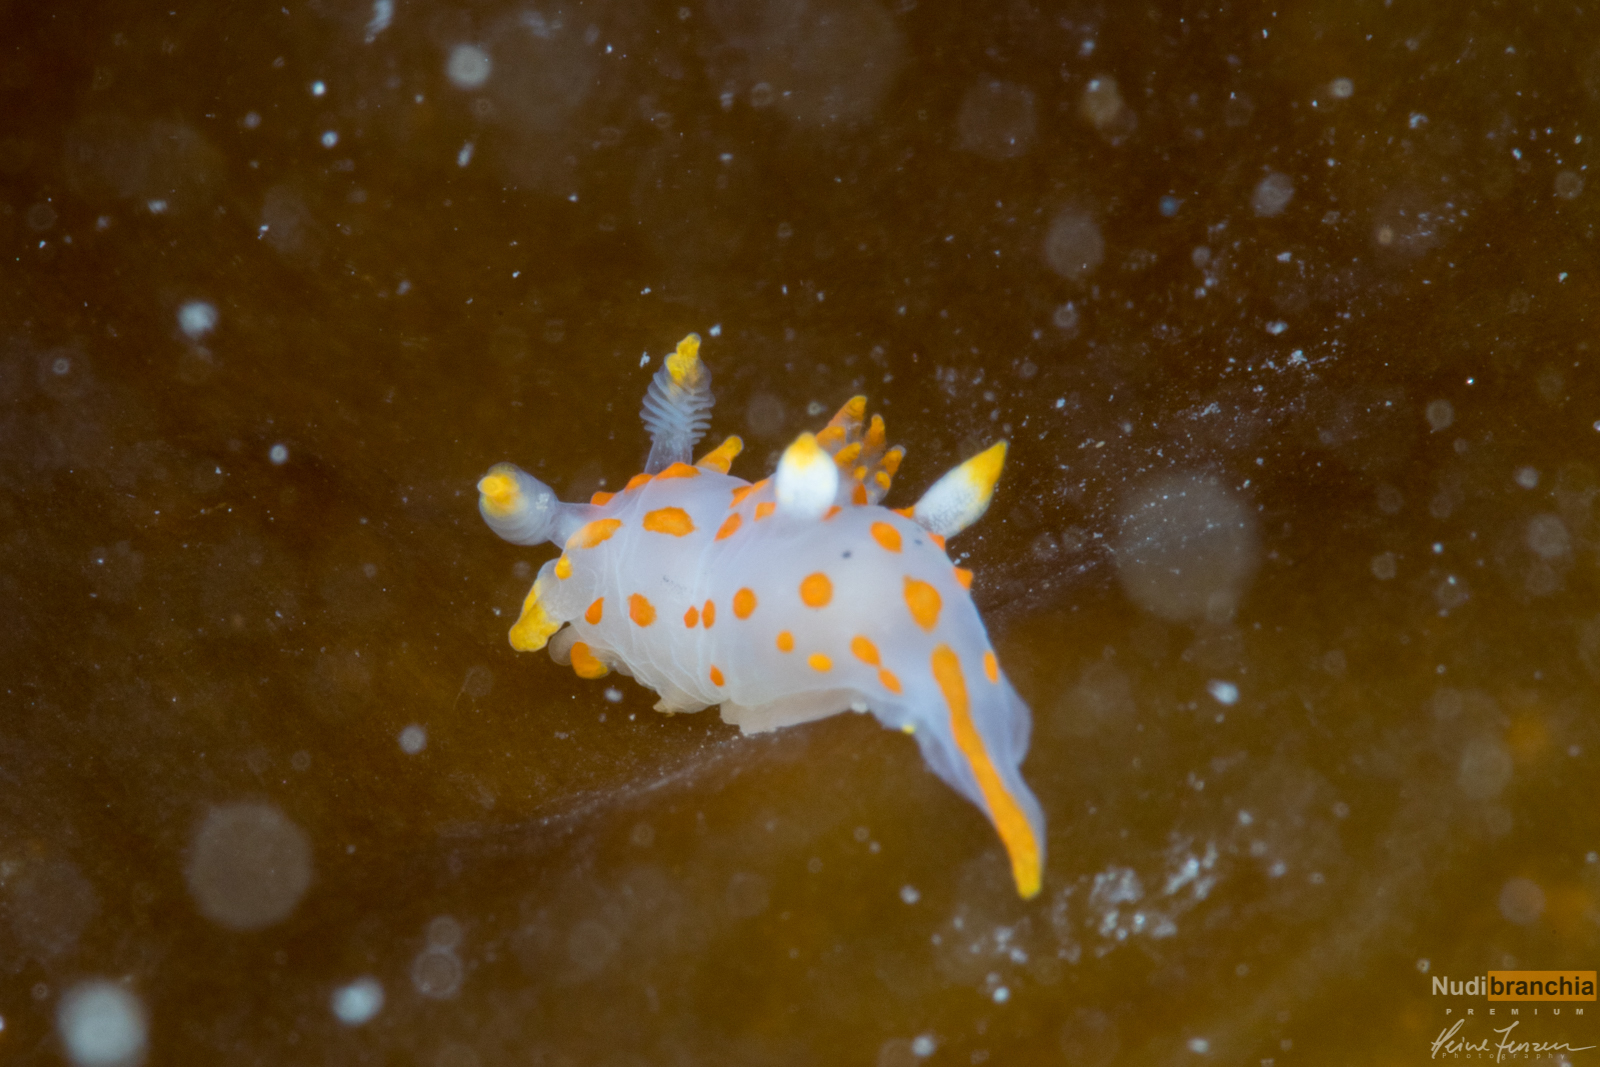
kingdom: Animalia
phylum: Mollusca
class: Gastropoda
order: Nudibranchia
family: Polyceridae
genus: Polycera
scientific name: Polycera quadrilineata
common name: Four-striped polycera
